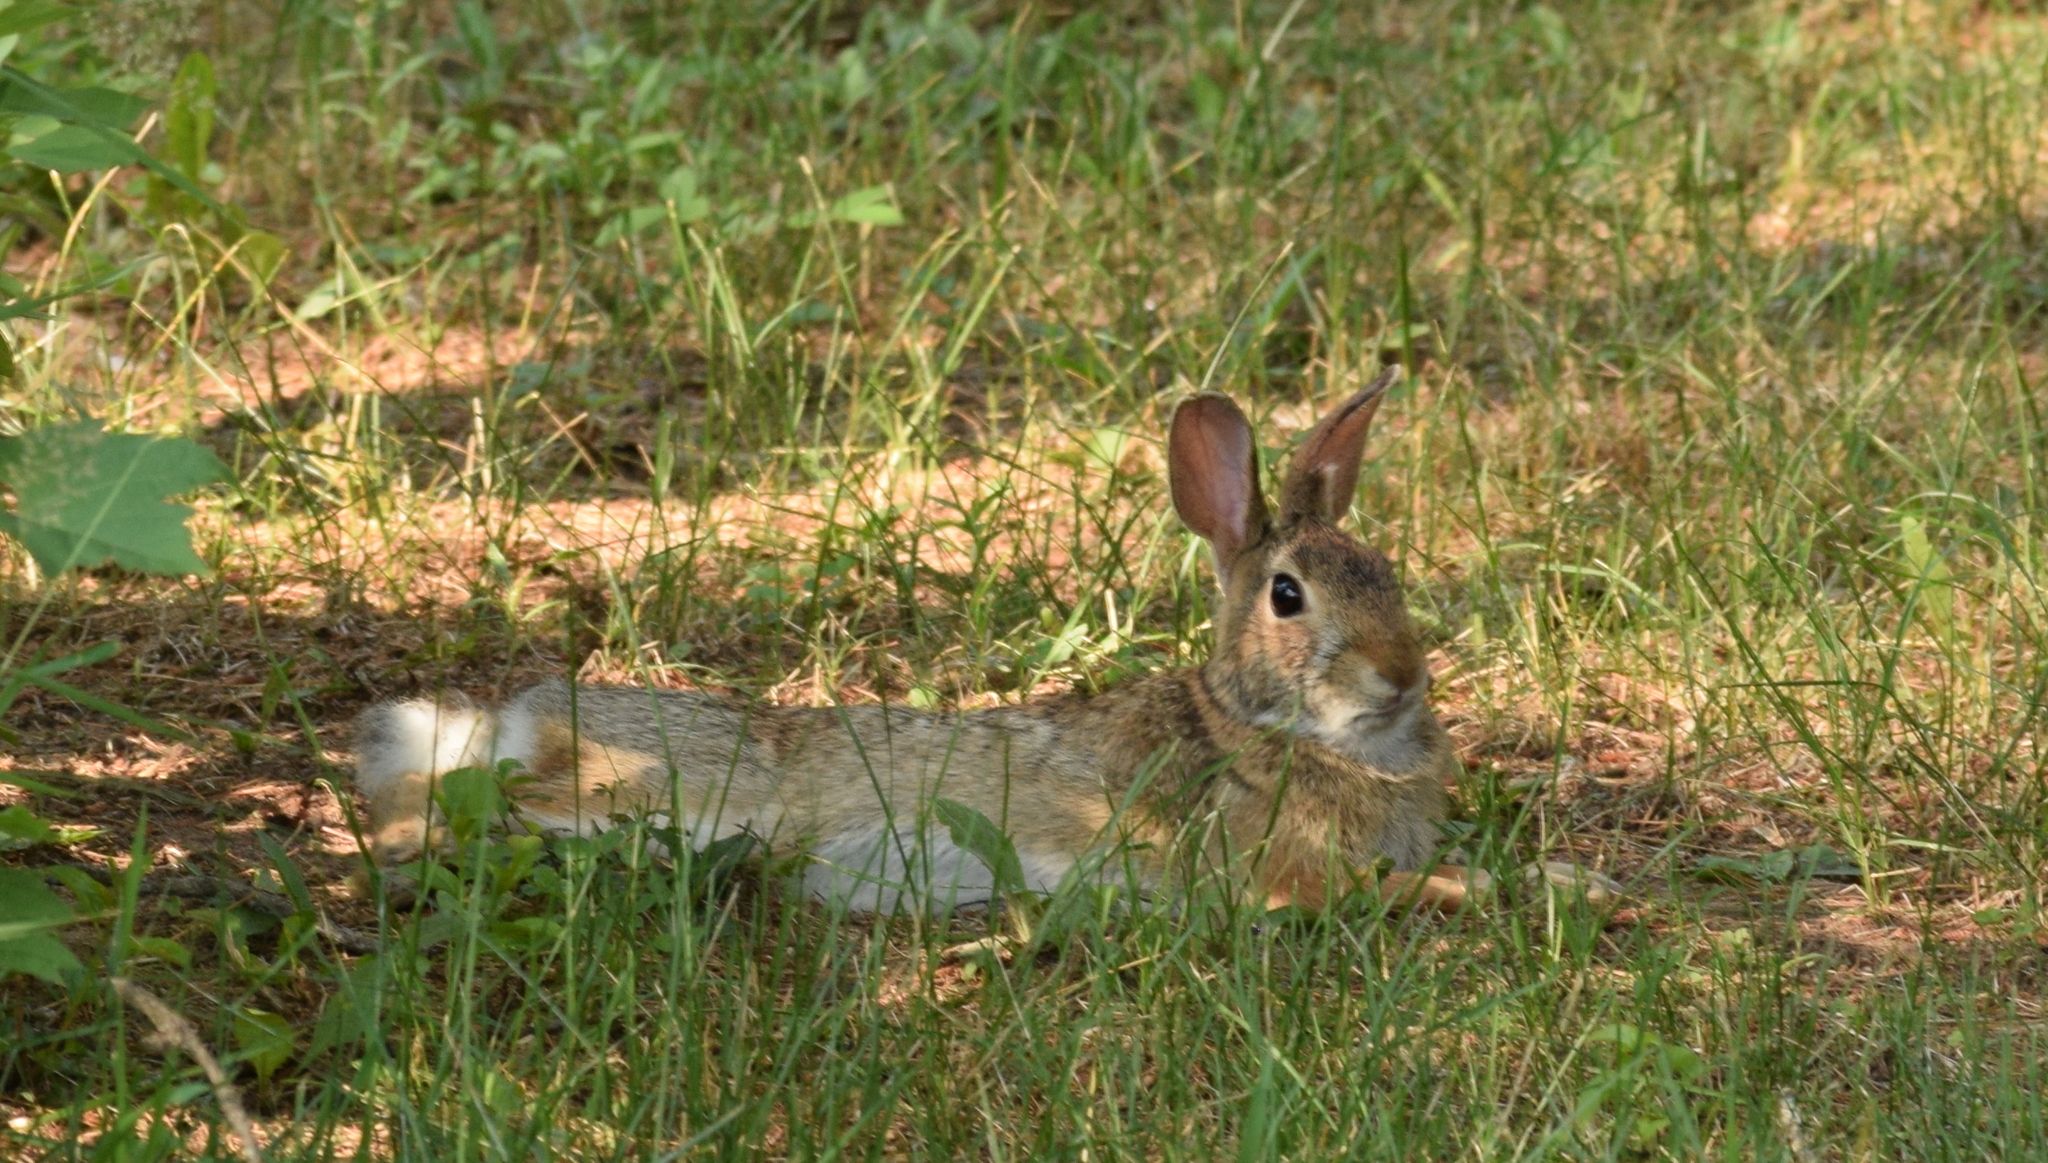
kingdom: Animalia
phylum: Chordata
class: Mammalia
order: Lagomorpha
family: Leporidae
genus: Sylvilagus
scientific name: Sylvilagus floridanus
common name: Eastern cottontail
